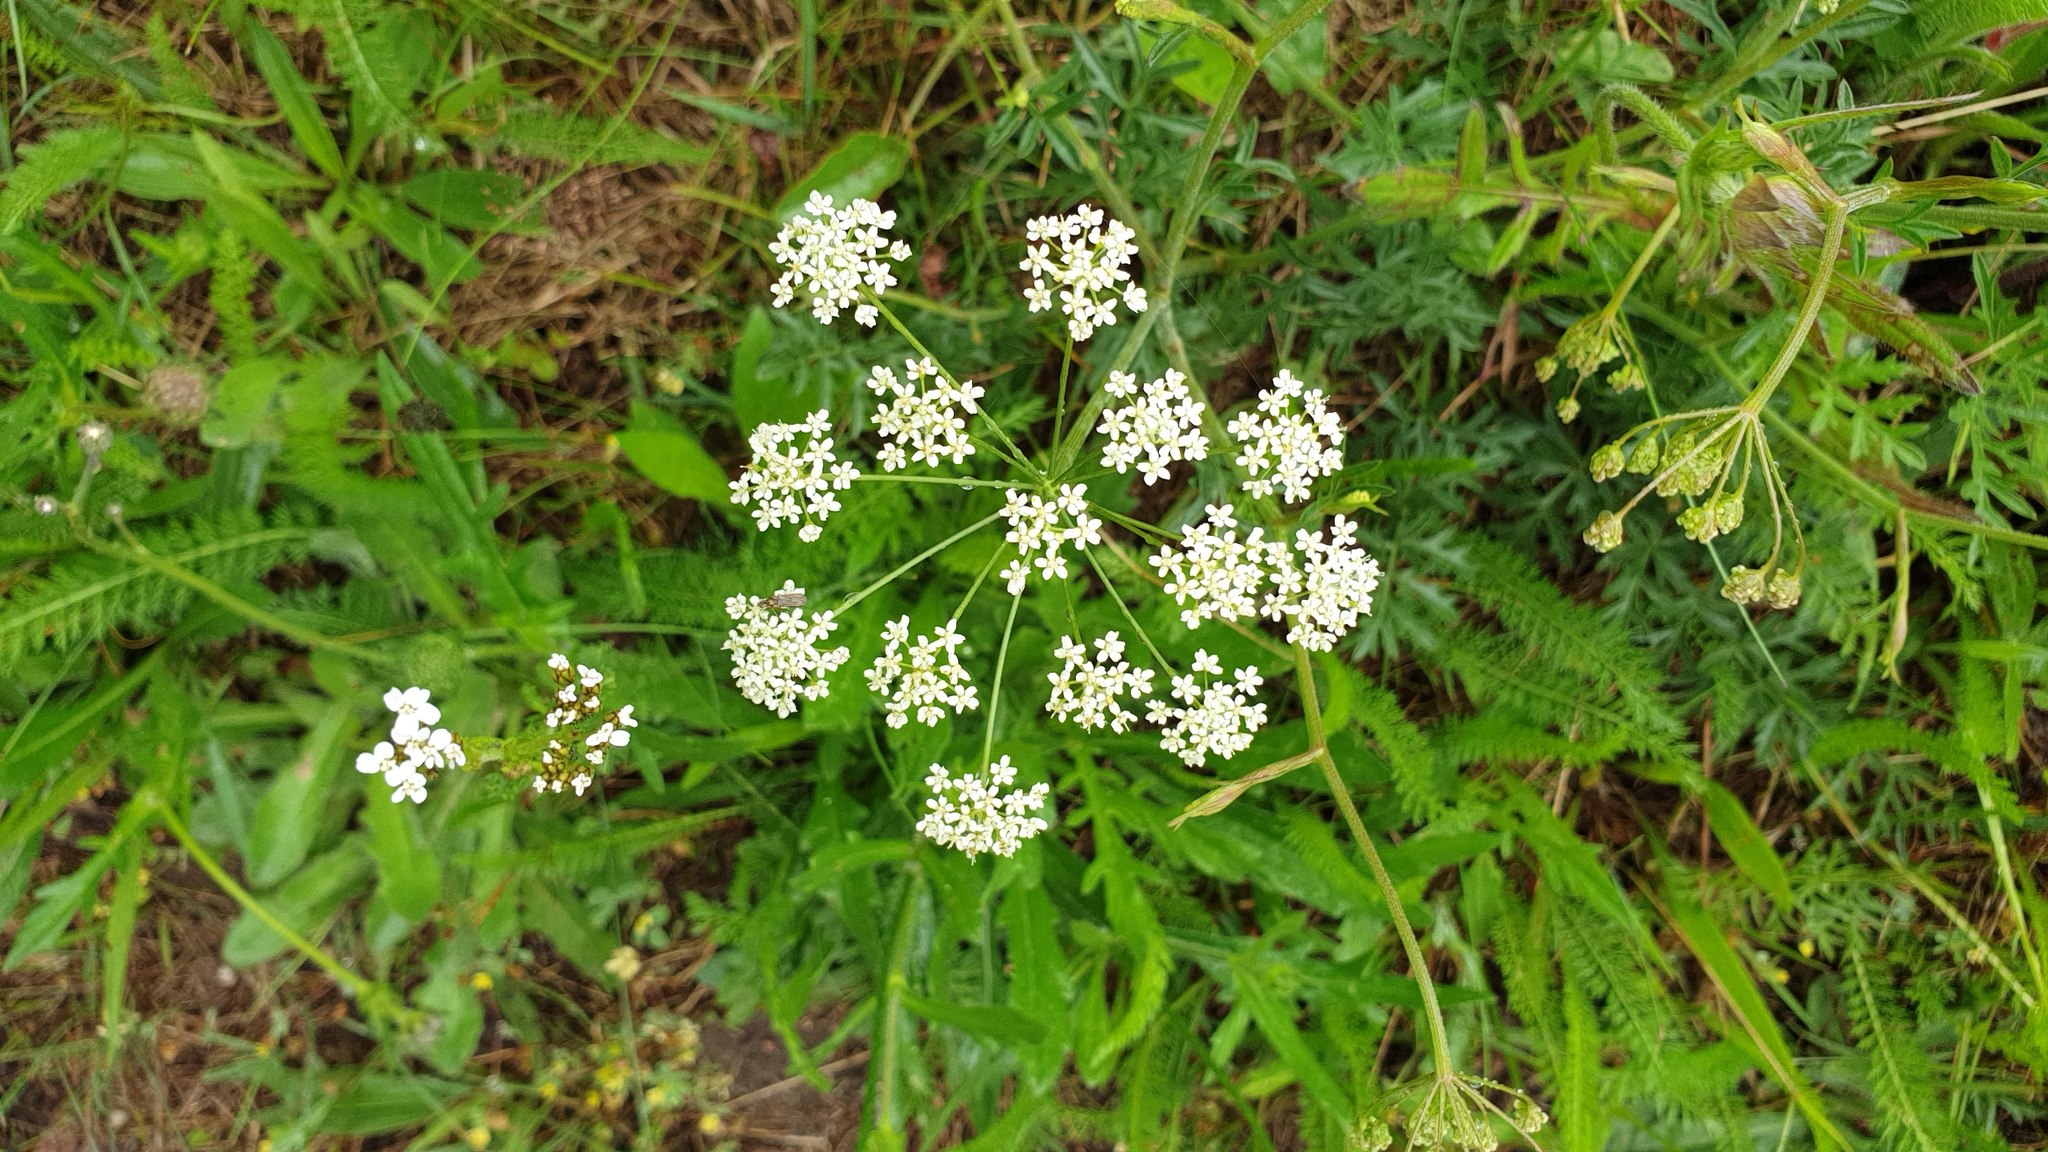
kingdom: Plantae
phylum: Tracheophyta
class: Magnoliopsida
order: Apiales
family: Apiaceae
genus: Pimpinella
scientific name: Pimpinella saxifraga
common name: Burnet-saxifrage
